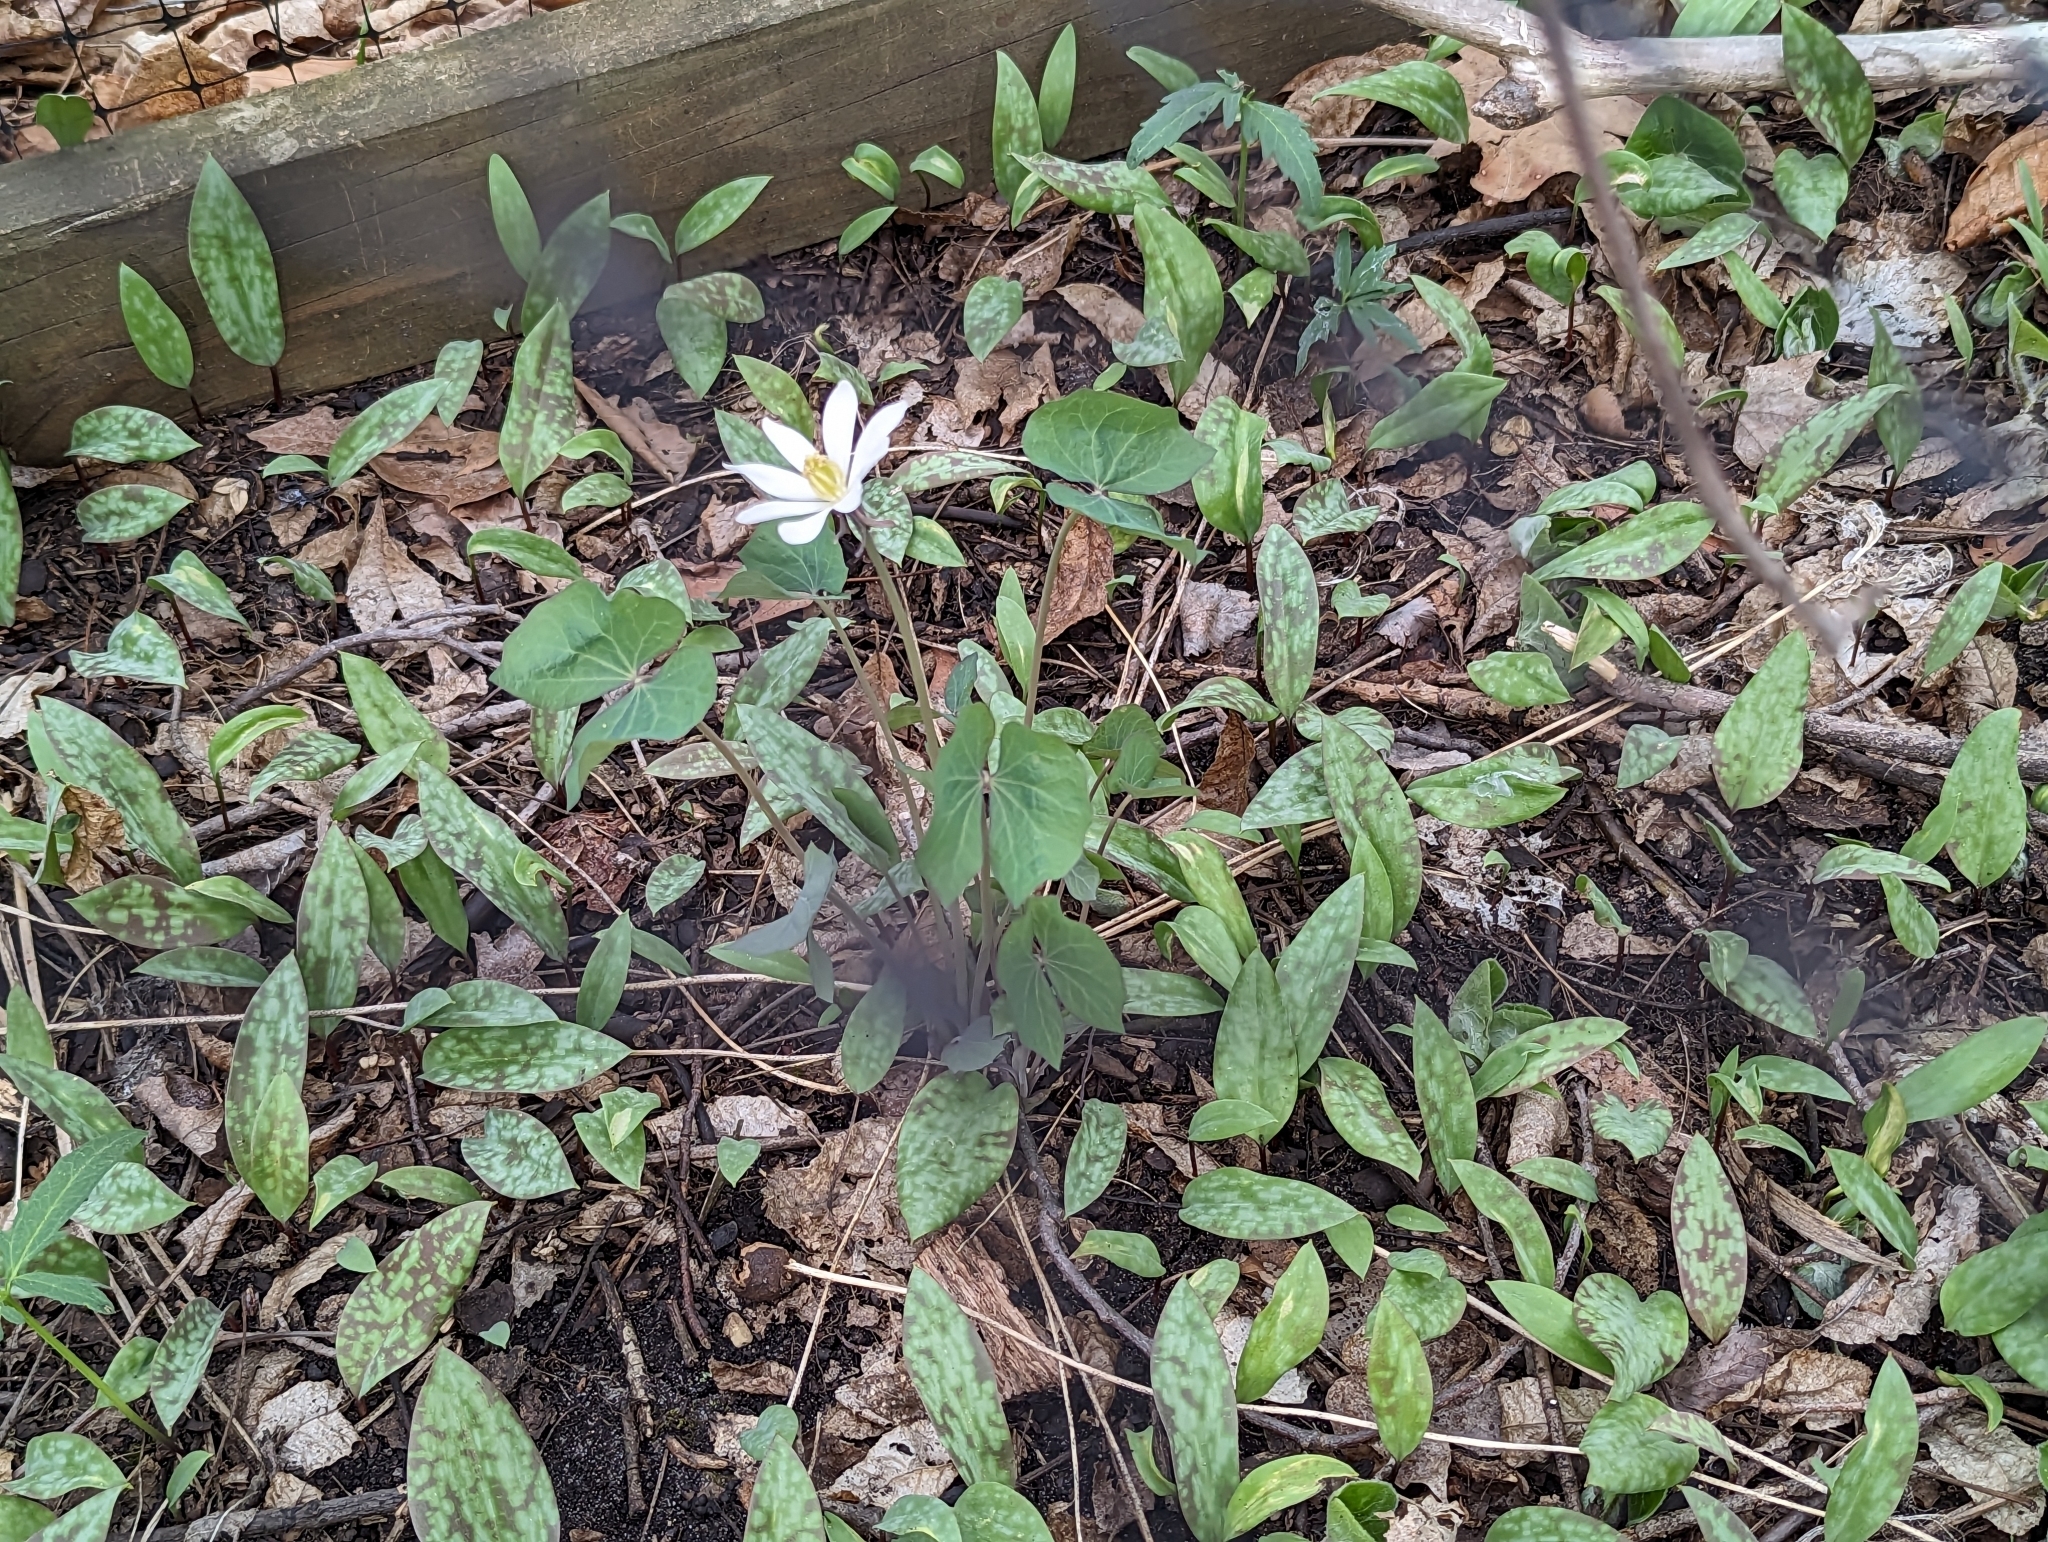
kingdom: Plantae
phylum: Tracheophyta
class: Magnoliopsida
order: Ranunculales
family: Berberidaceae
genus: Jeffersonia
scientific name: Jeffersonia diphylla
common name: Rheumatism-root
